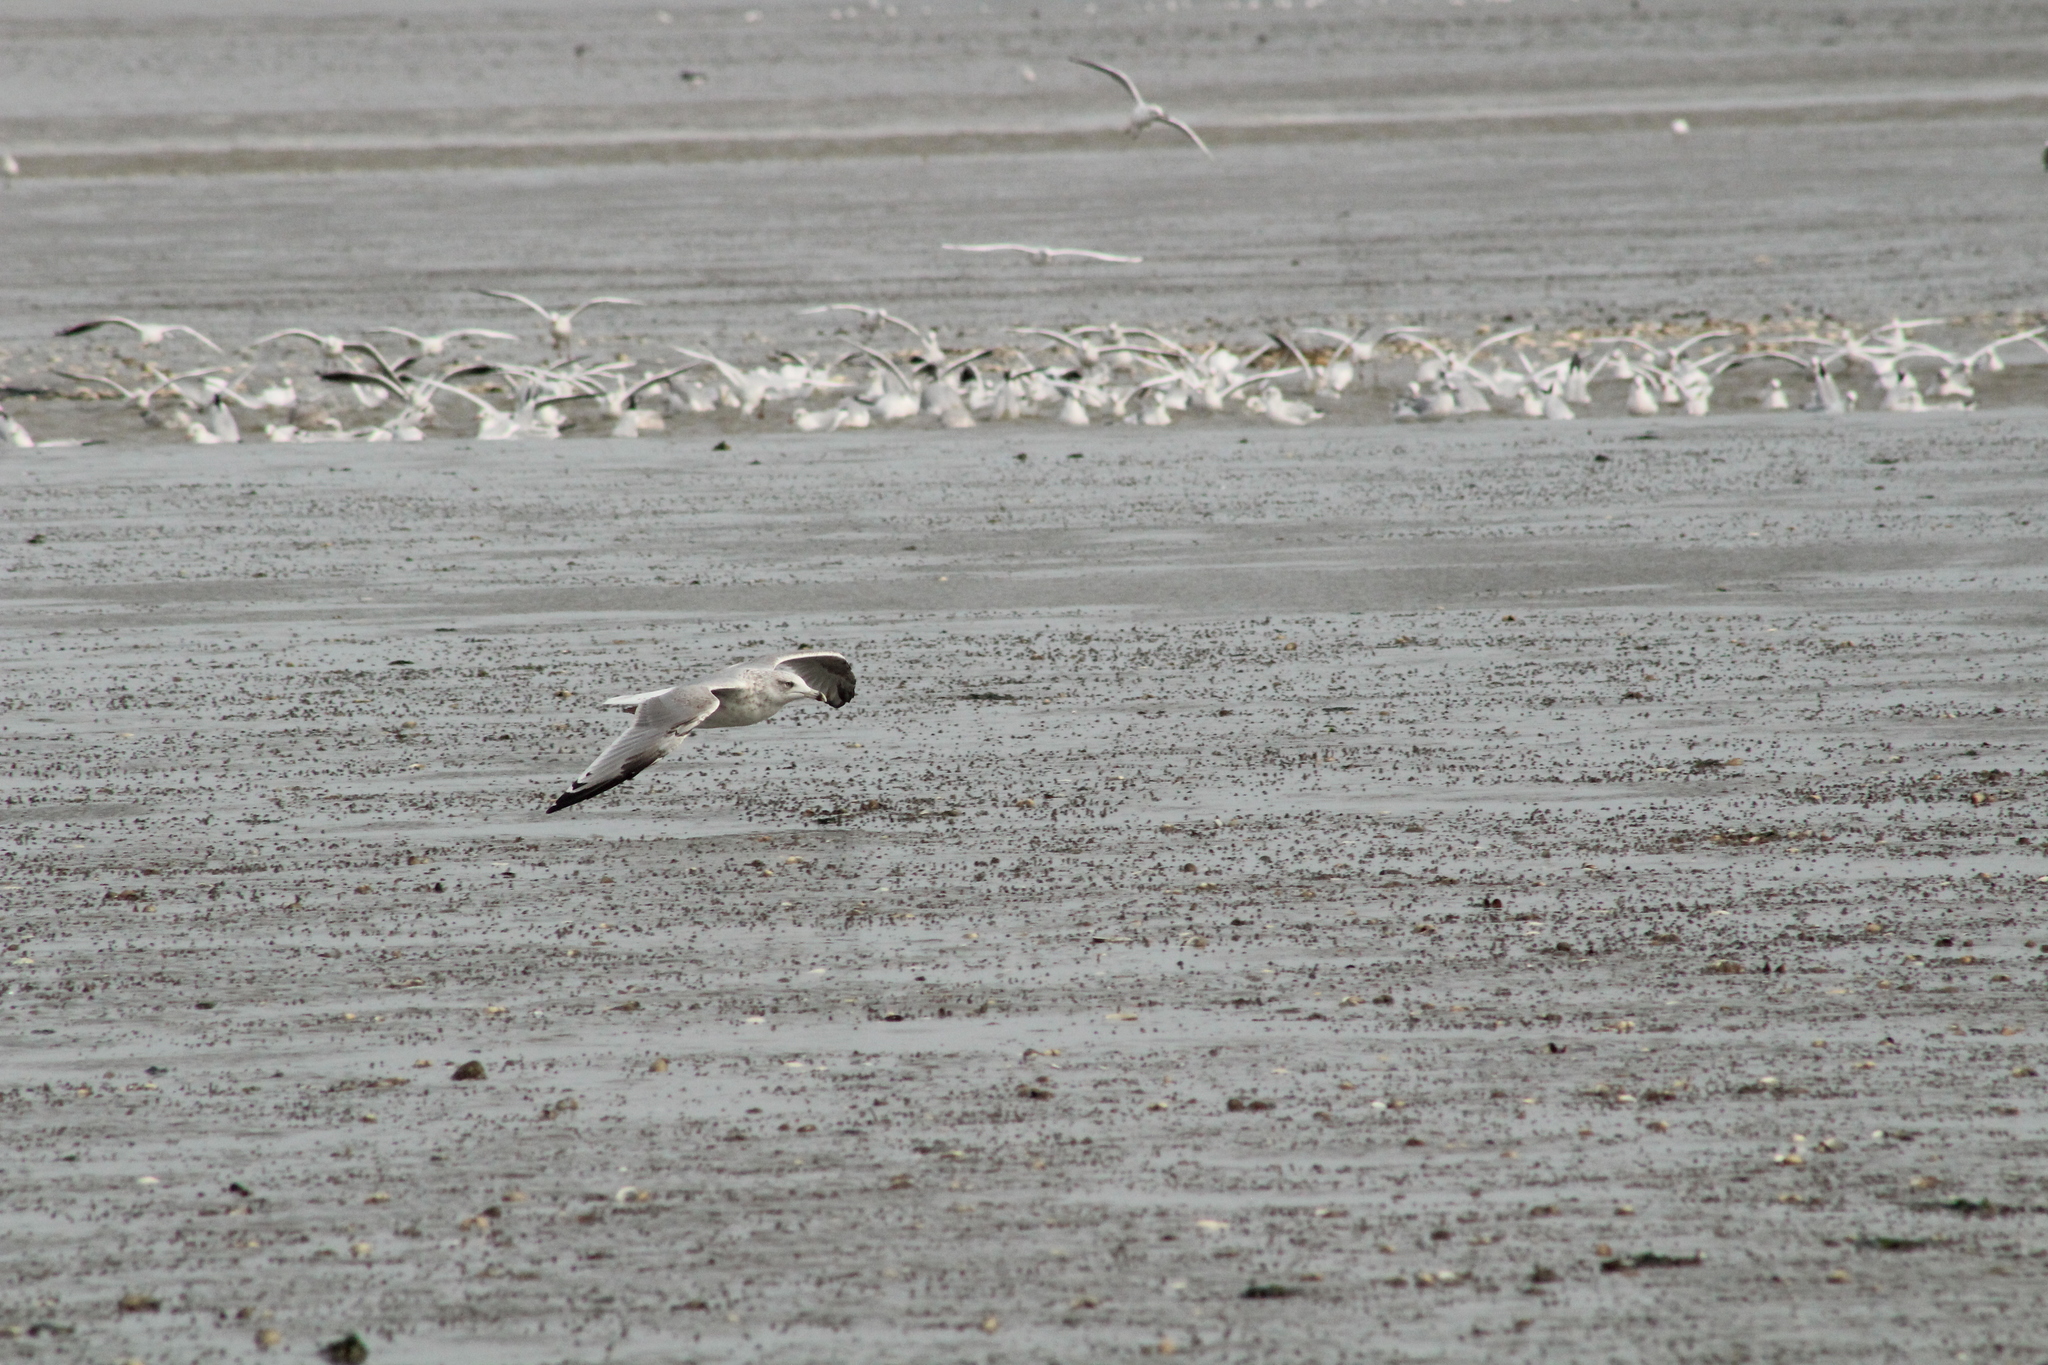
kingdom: Animalia
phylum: Chordata
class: Aves
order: Charadriiformes
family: Laridae
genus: Larus
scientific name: Larus argentatus
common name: Herring gull
